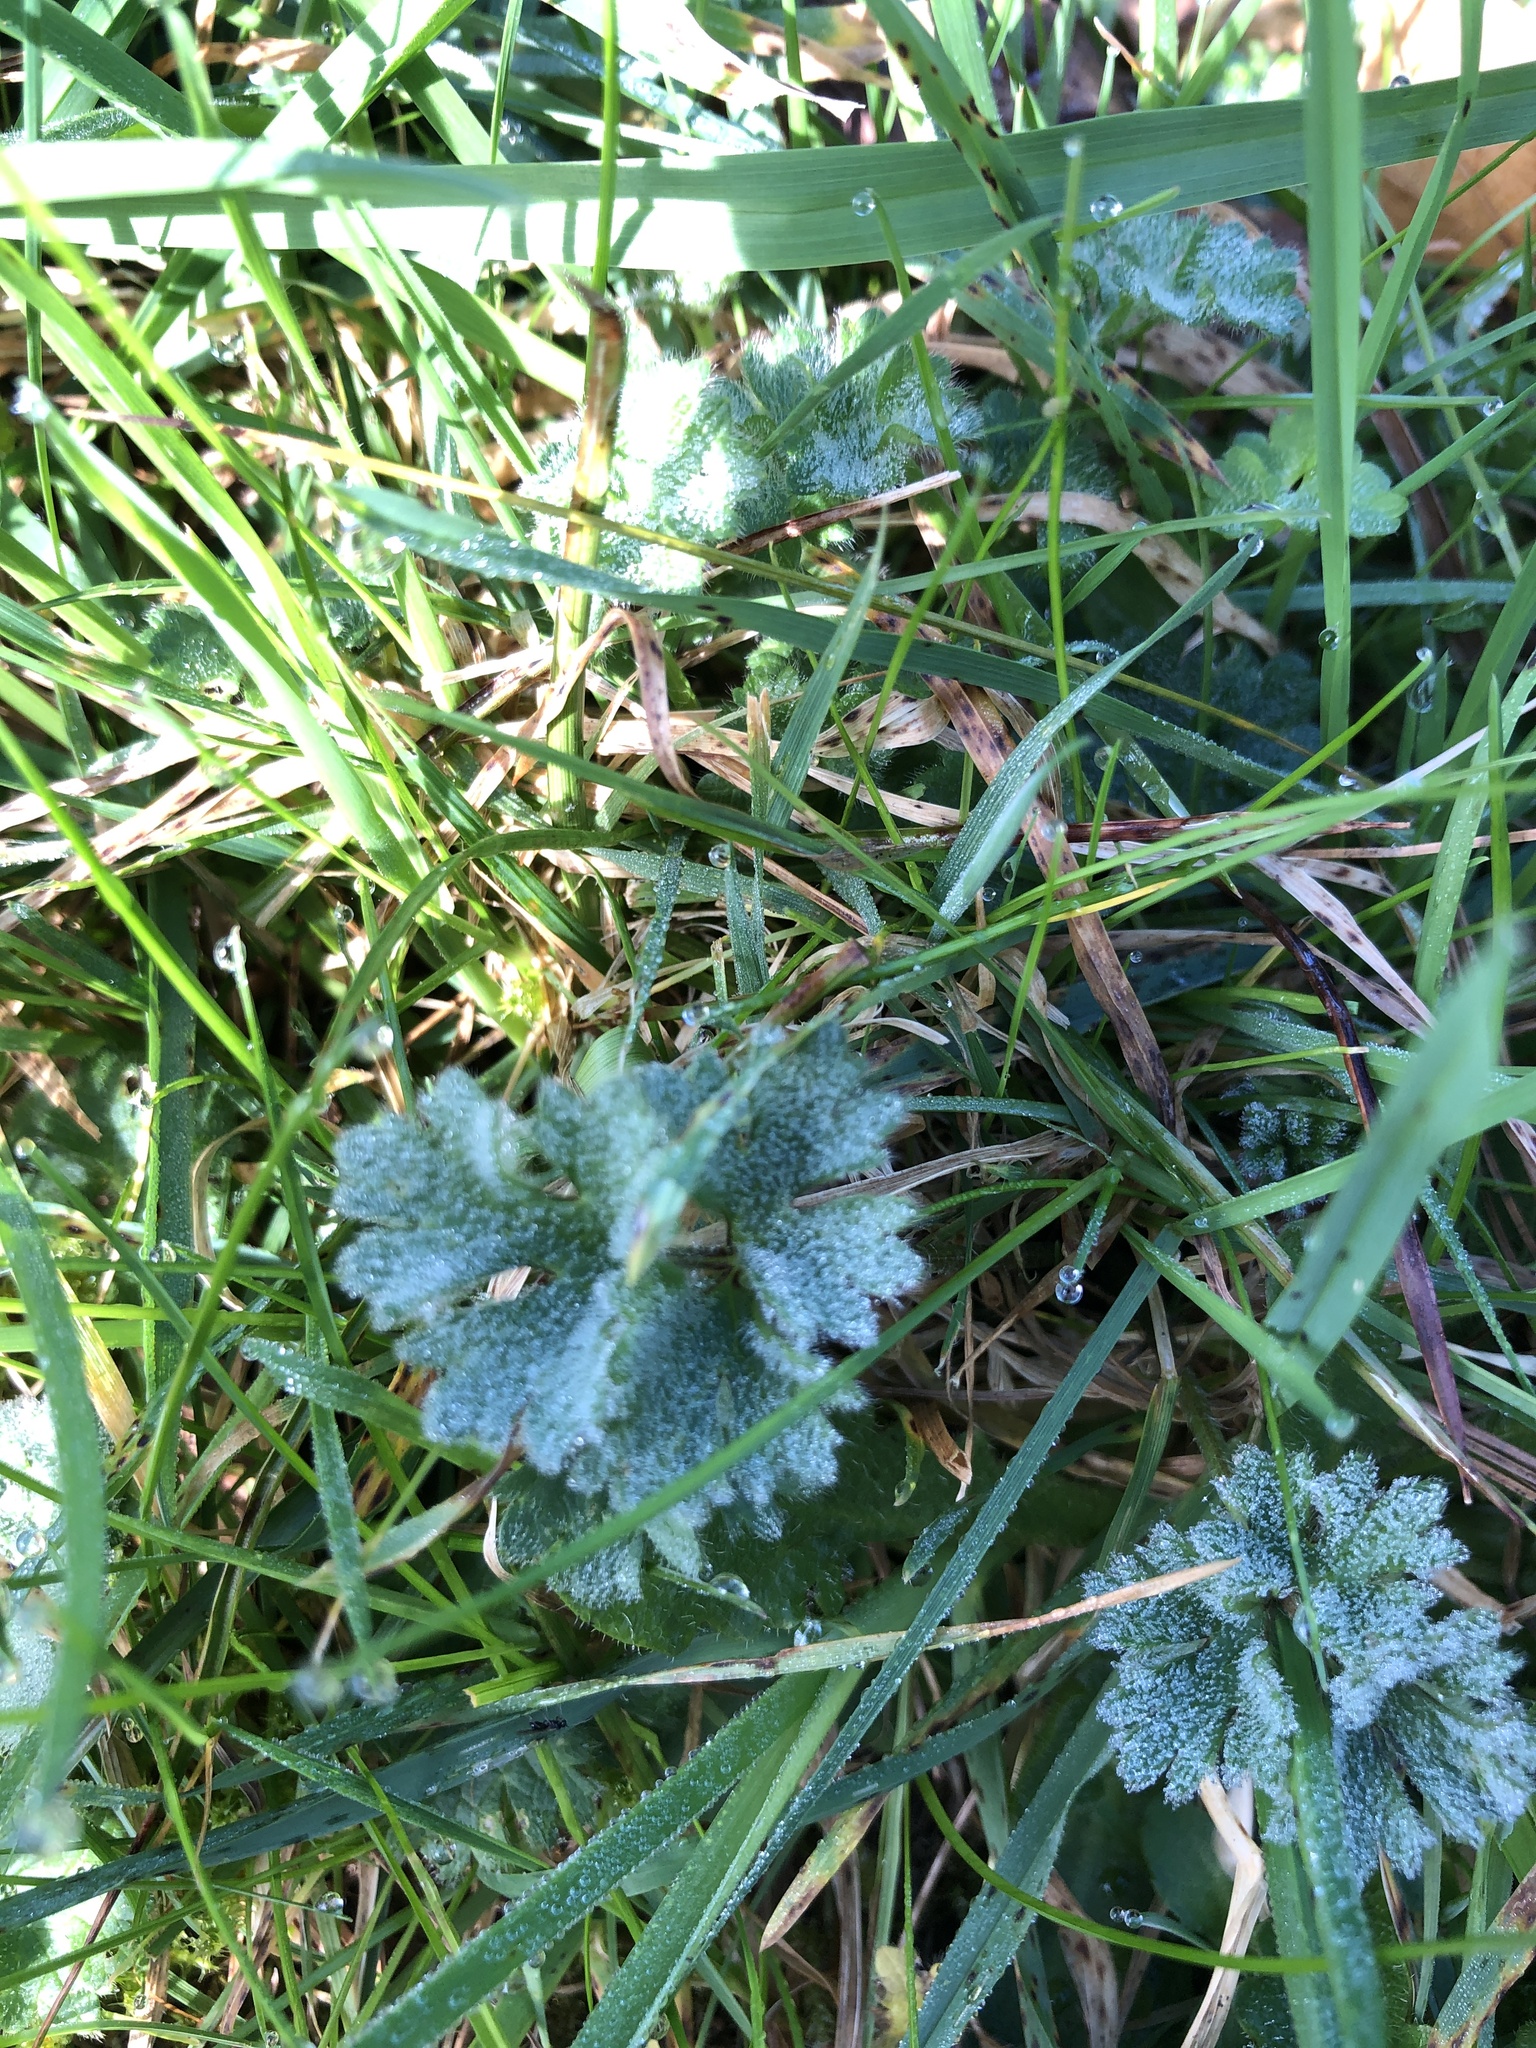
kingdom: Plantae
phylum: Tracheophyta
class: Magnoliopsida
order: Ranunculales
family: Ranunculaceae
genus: Ranunculus
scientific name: Ranunculus bulbosus
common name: Bulbous buttercup
